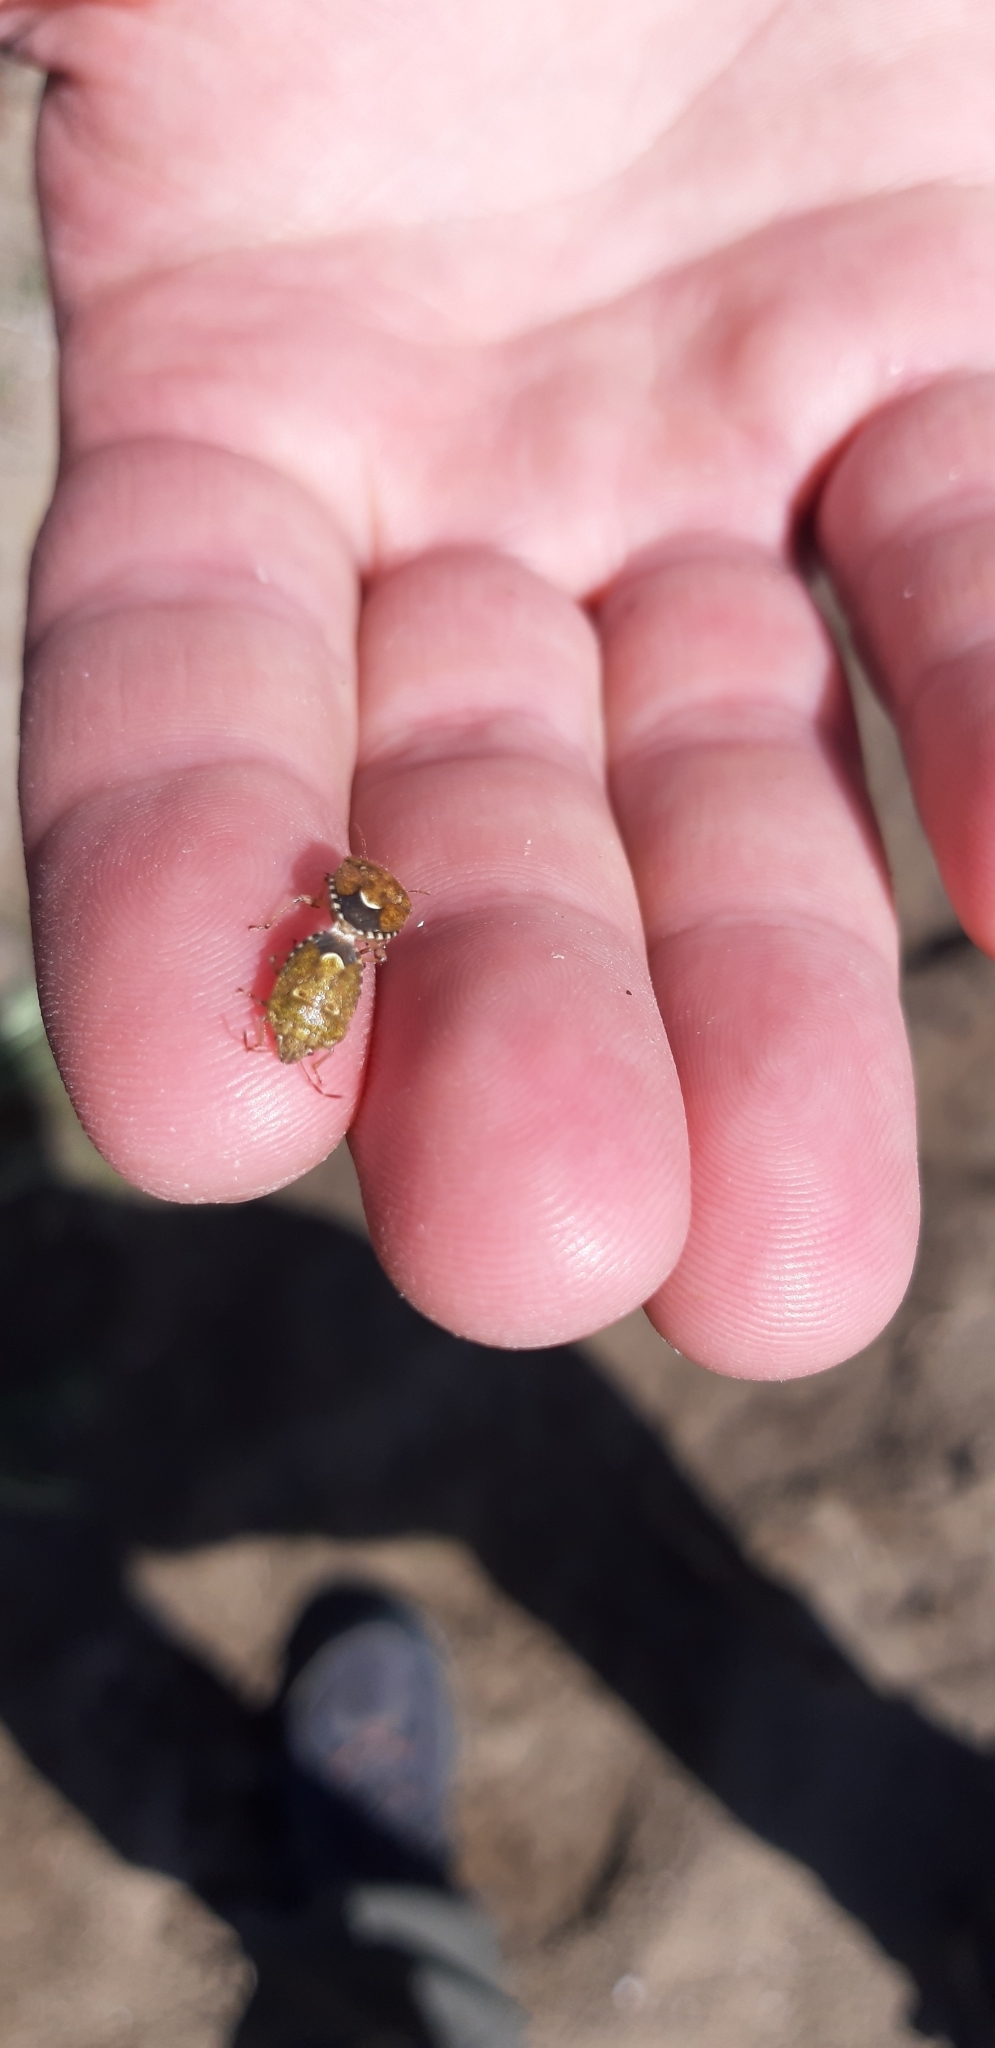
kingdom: Animalia
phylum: Arthropoda
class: Insecta
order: Hemiptera
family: Pentatomidae
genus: Staria
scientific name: Staria lunata
